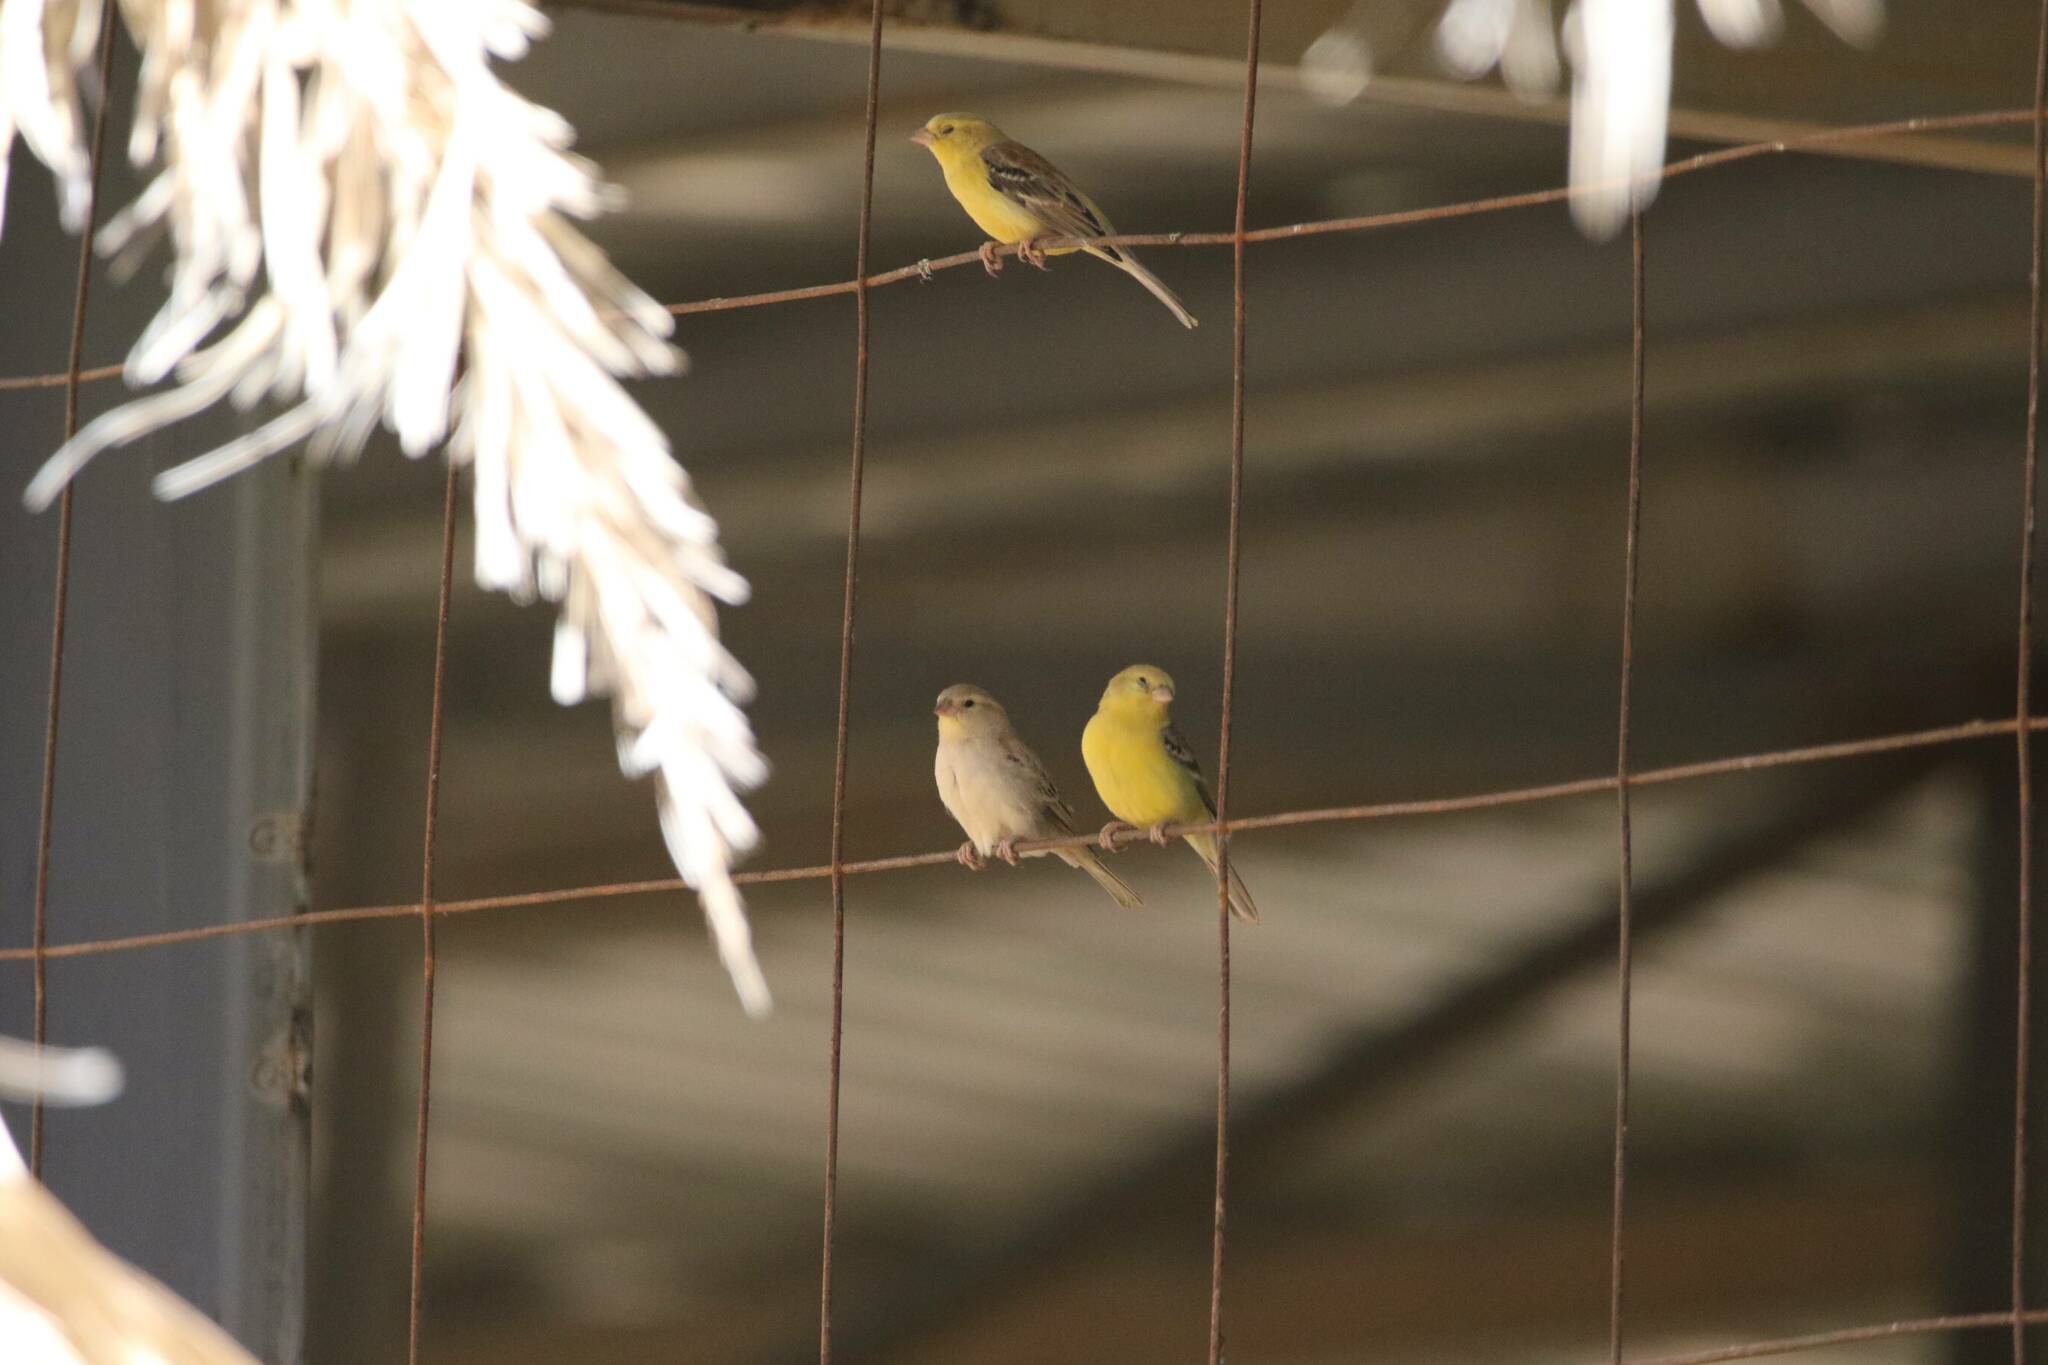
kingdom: Animalia
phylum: Chordata
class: Aves
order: Passeriformes
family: Passeridae
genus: Passer
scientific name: Passer luteus
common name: Sudan golden sparrow
